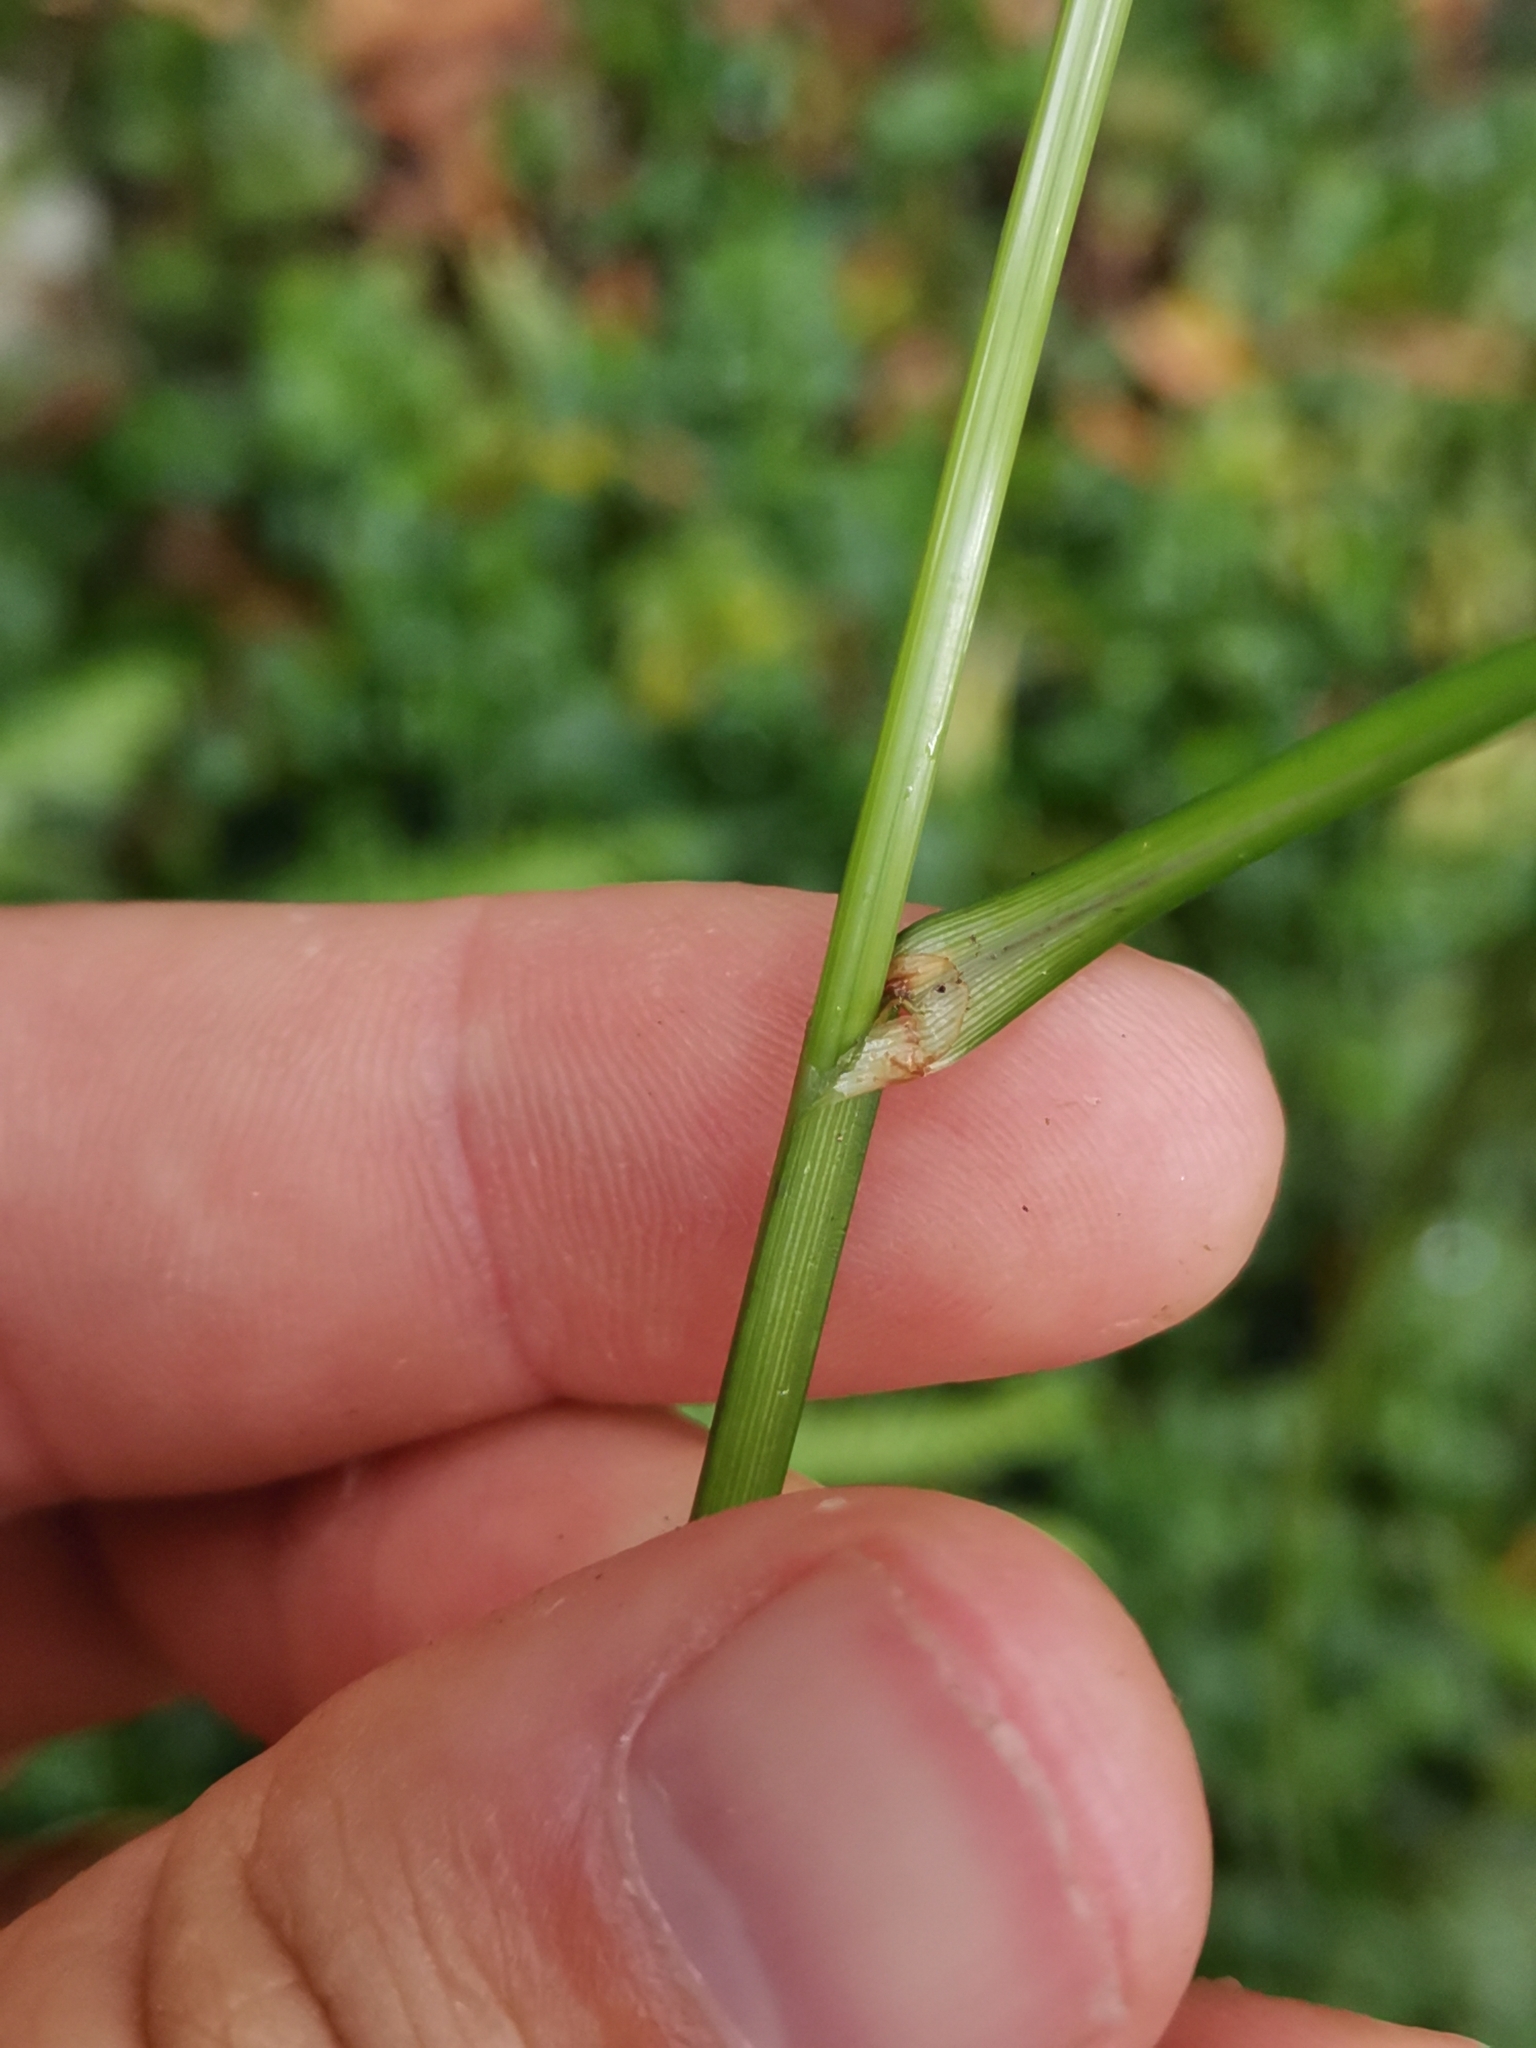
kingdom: Plantae
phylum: Tracheophyta
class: Liliopsida
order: Poales
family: Cyperaceae
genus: Carex
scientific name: Carex hochstetteriana
